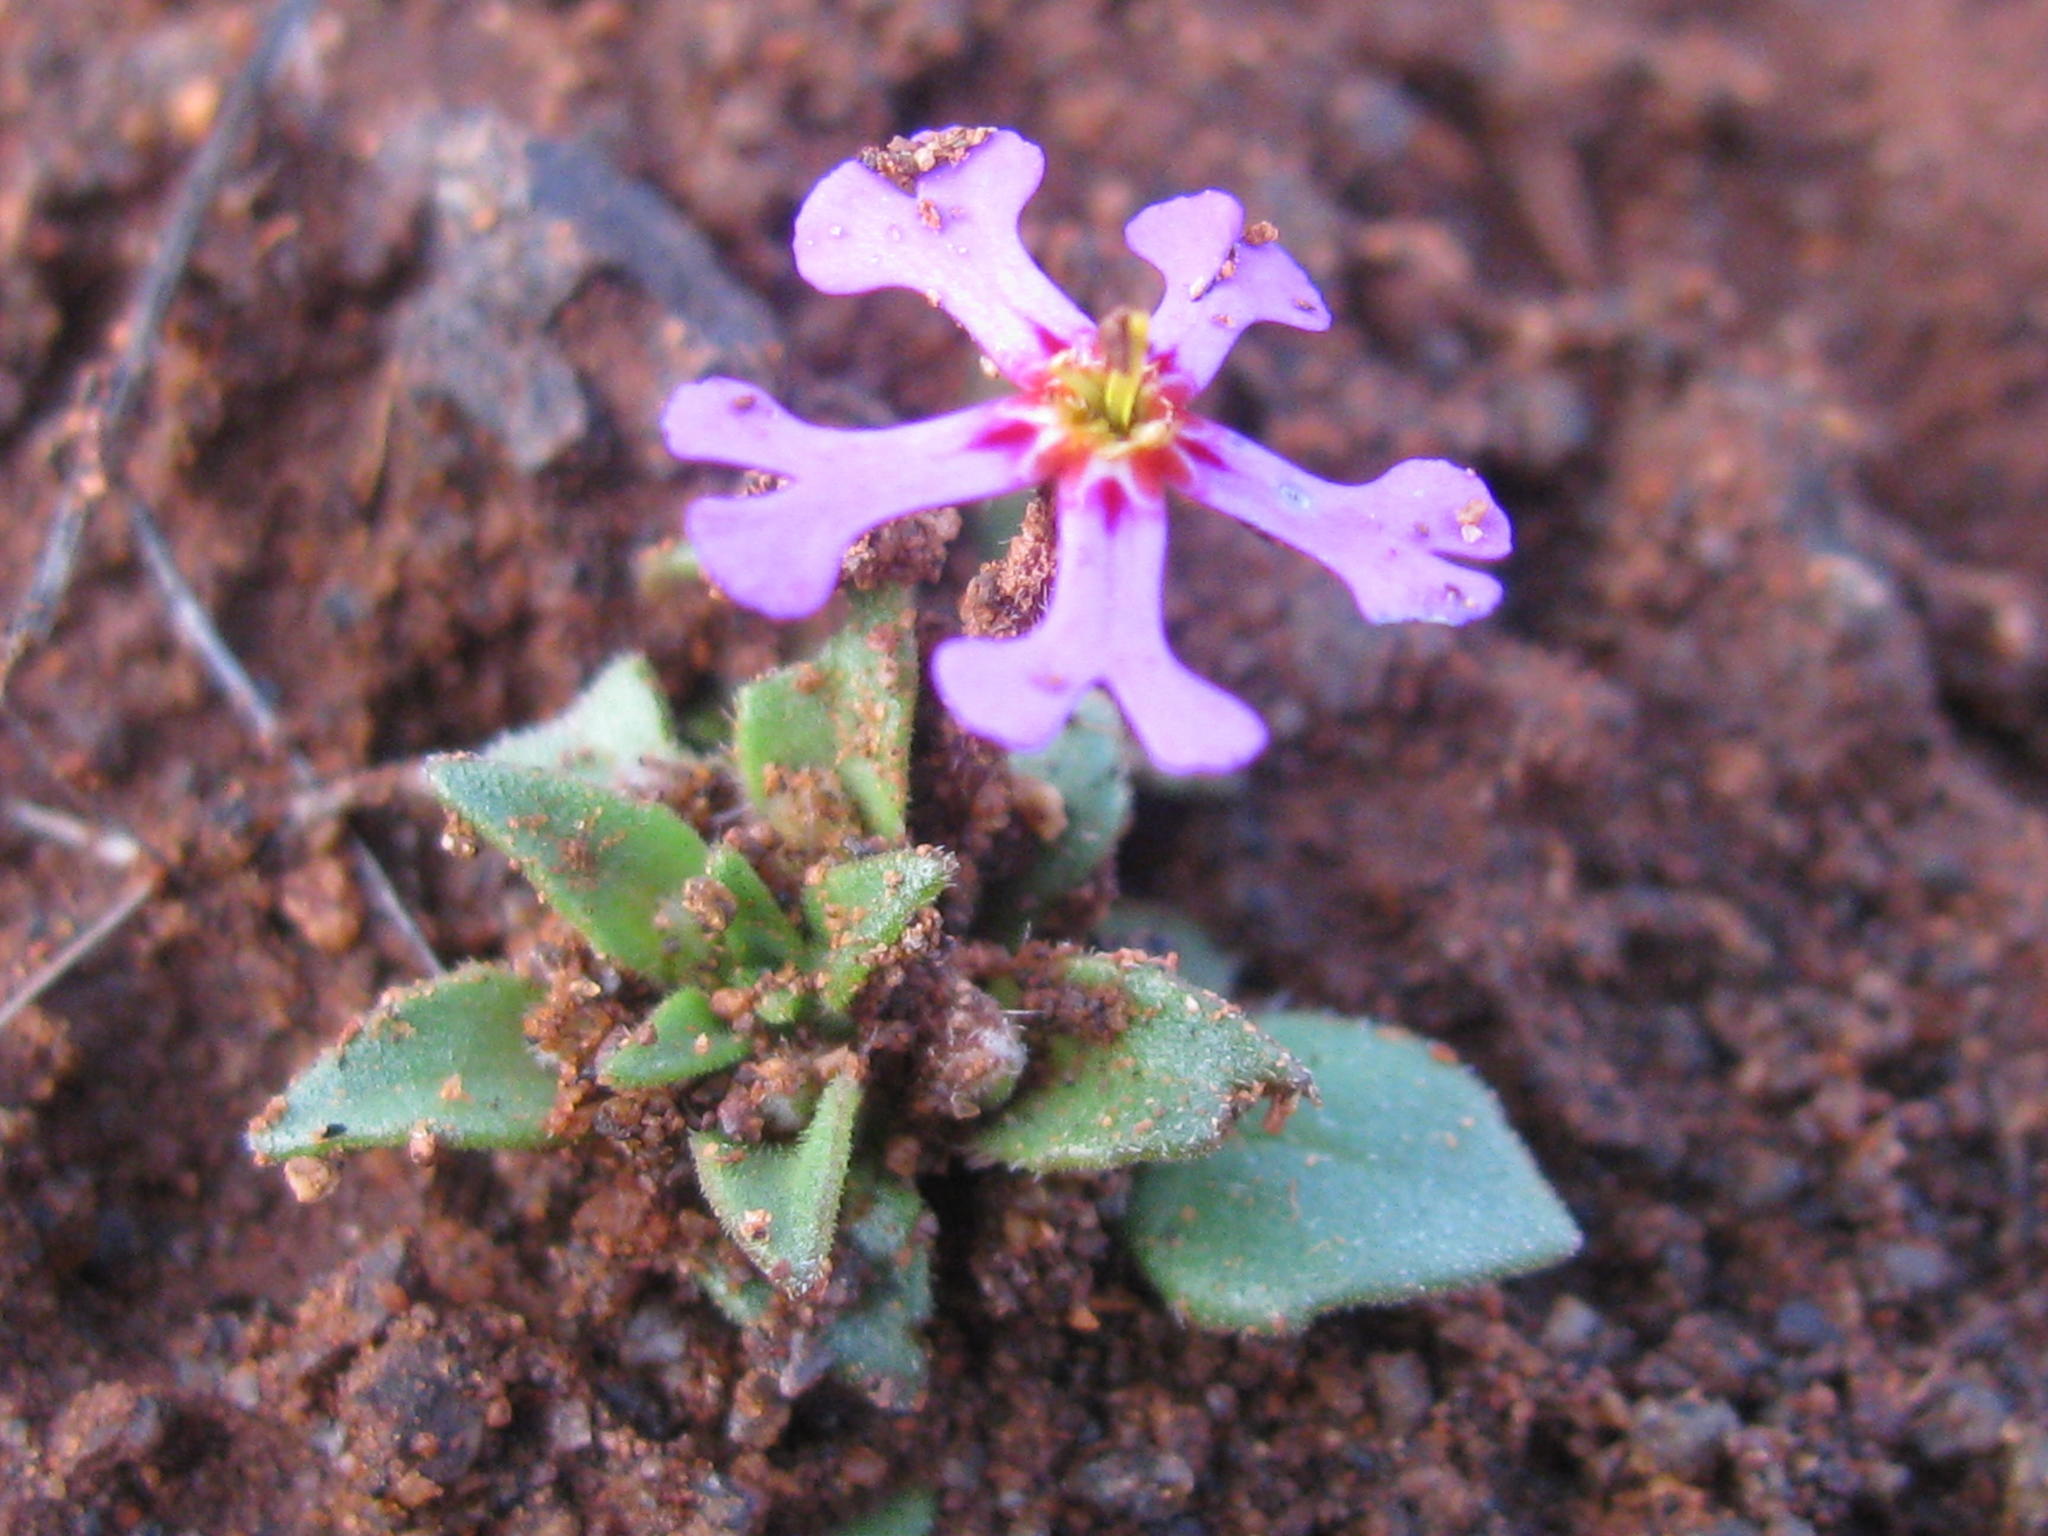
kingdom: Plantae
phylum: Tracheophyta
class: Magnoliopsida
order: Lamiales
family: Scrophulariaceae
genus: Zaluzianskya
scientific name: Zaluzianskya violacea
